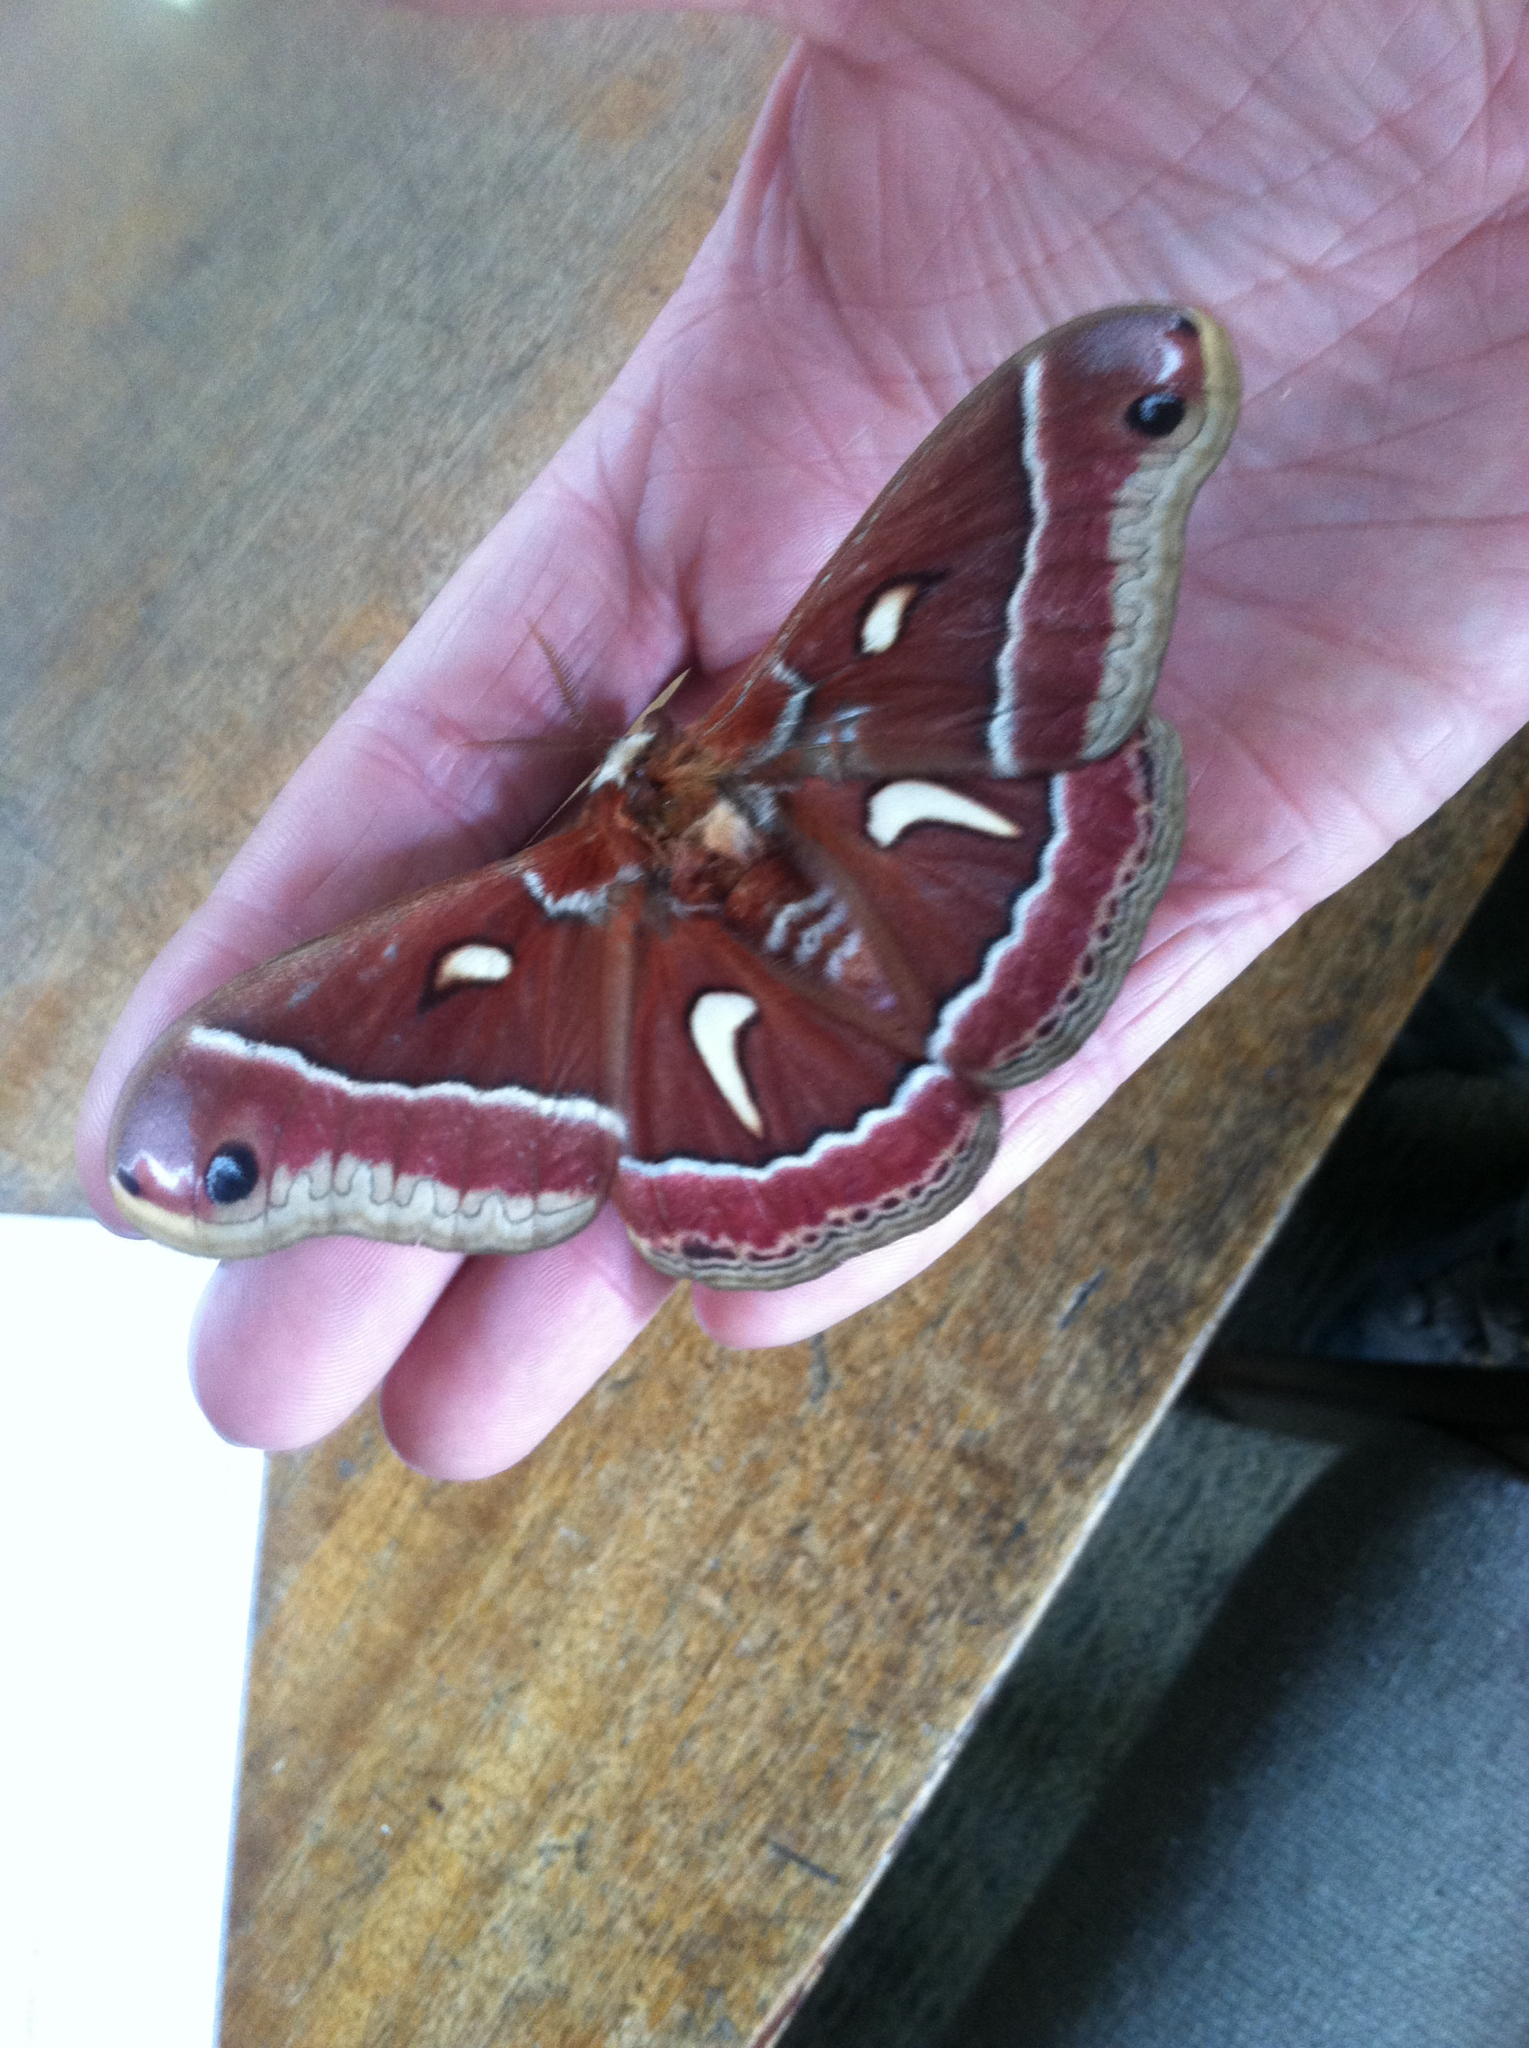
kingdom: Animalia
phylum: Arthropoda
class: Insecta
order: Lepidoptera
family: Saturniidae
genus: Hyalophora
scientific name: Hyalophora euryalus
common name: Ceanothus silkmoth
